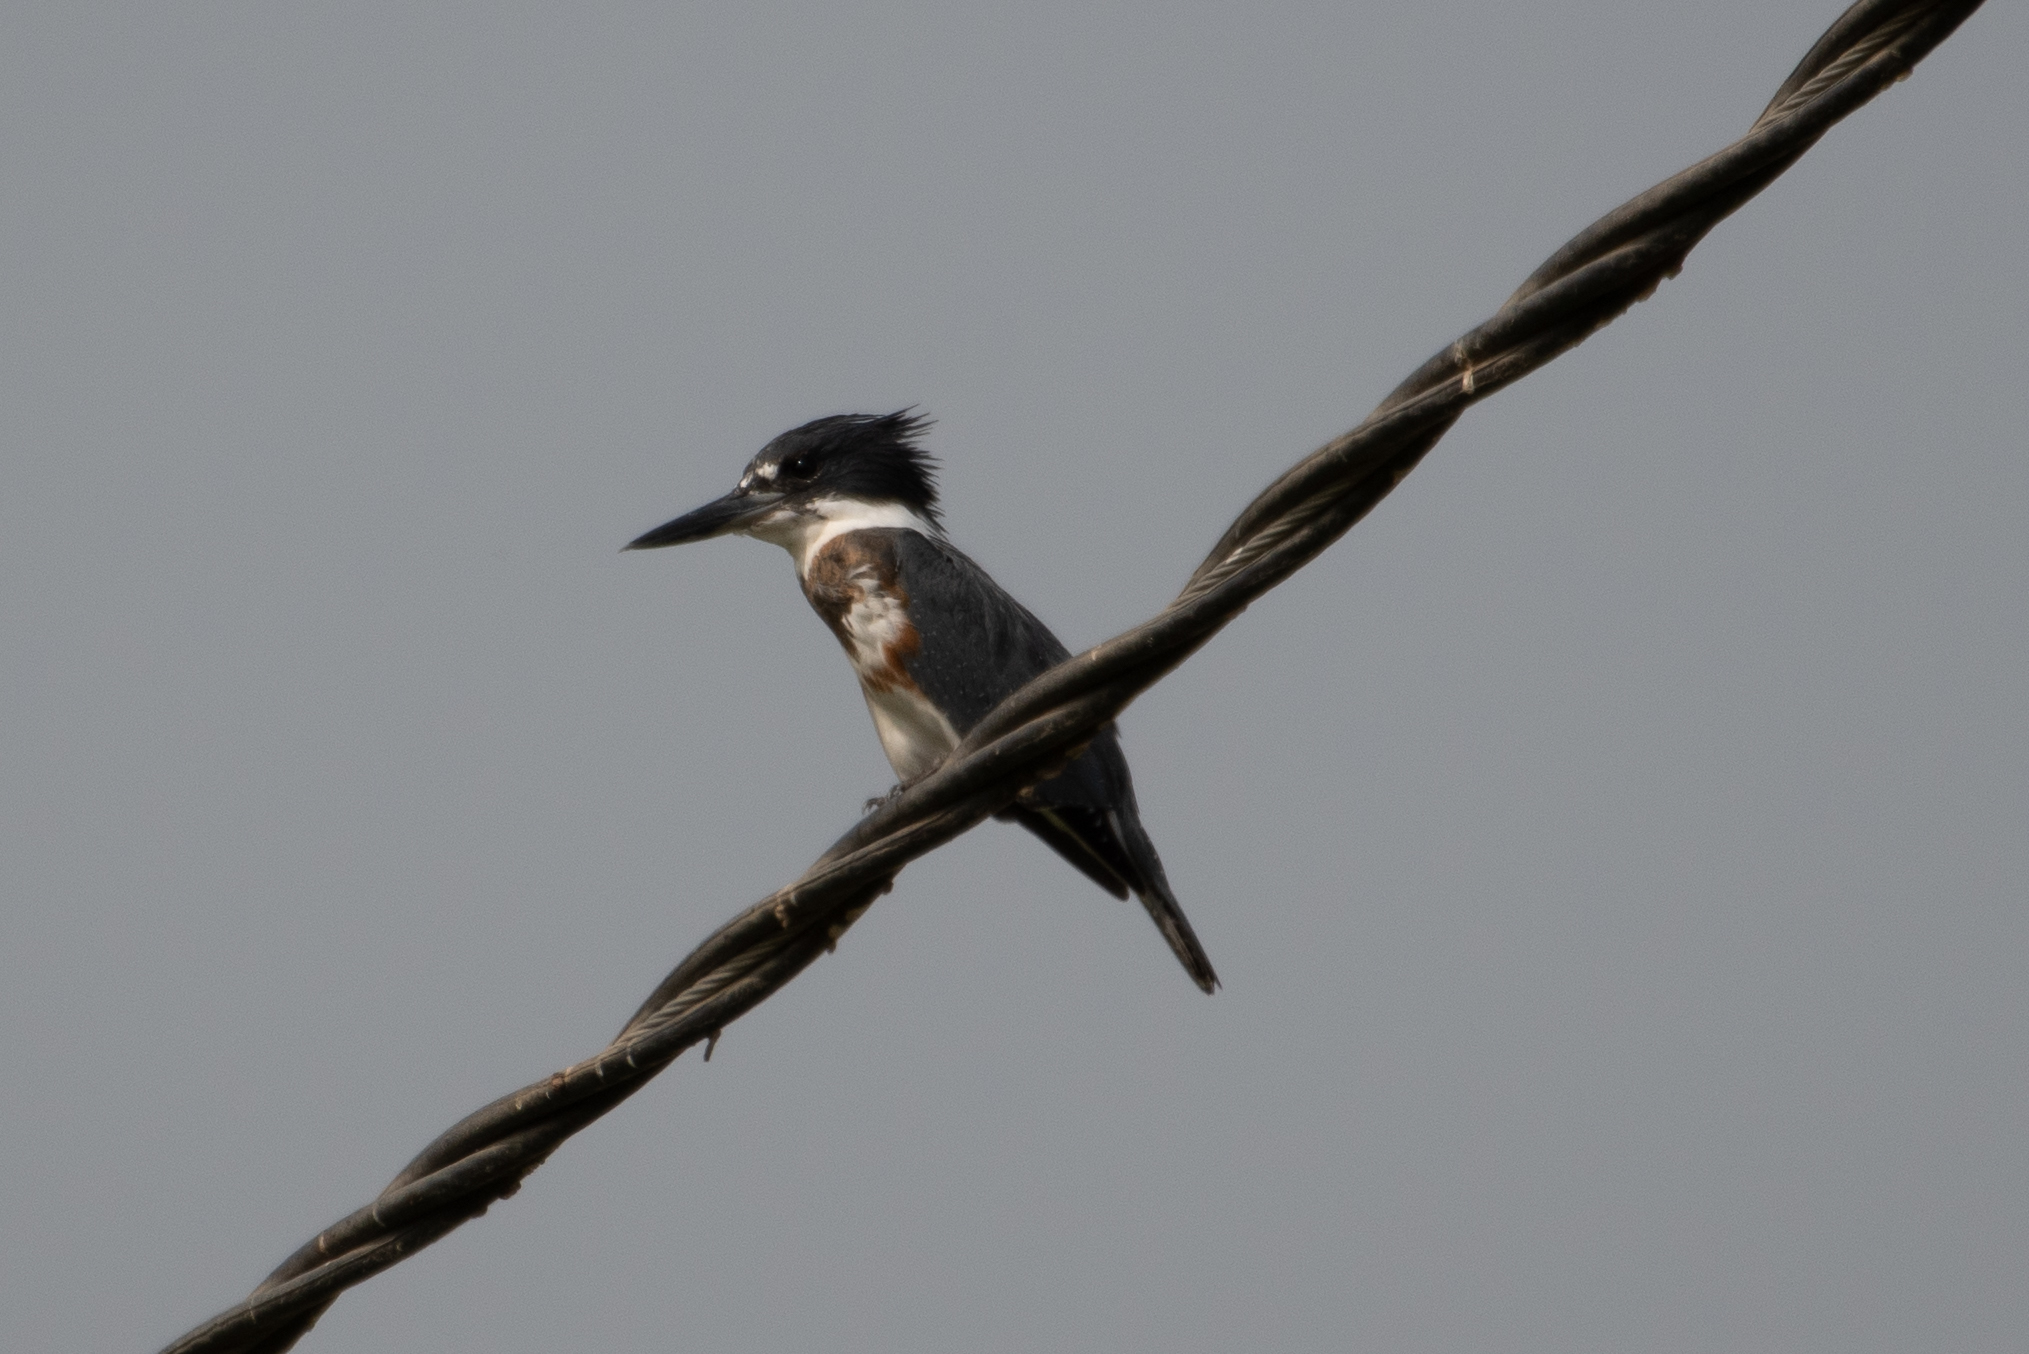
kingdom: Animalia
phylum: Chordata
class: Aves
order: Coraciiformes
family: Alcedinidae
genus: Megaceryle
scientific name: Megaceryle alcyon
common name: Belted kingfisher
